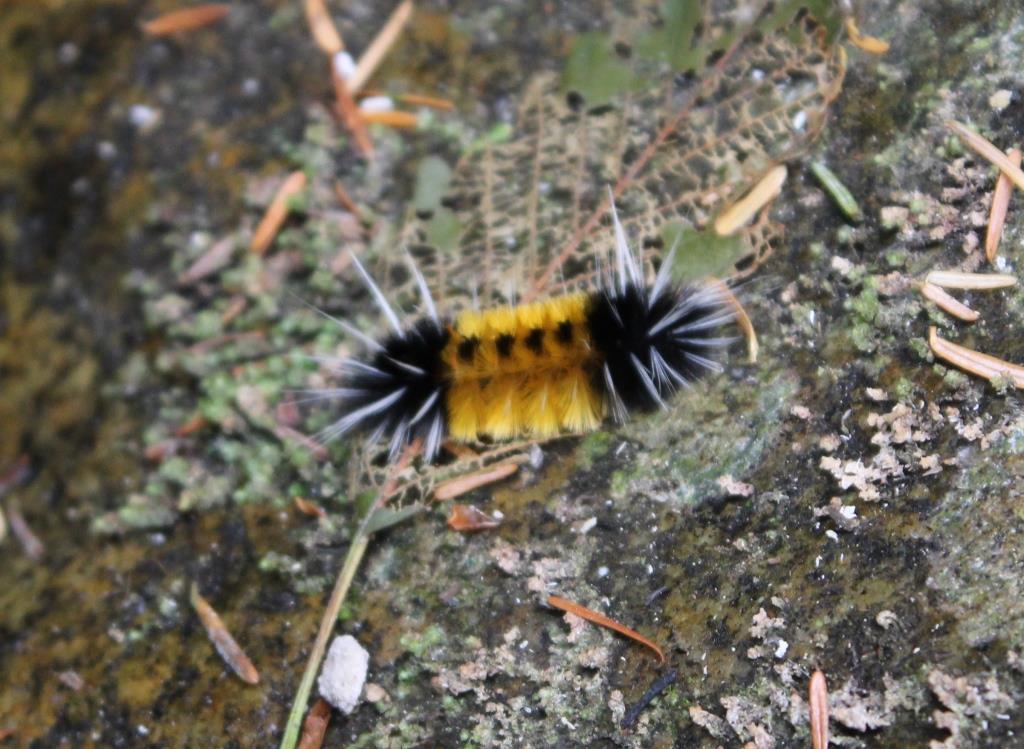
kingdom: Animalia
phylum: Arthropoda
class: Insecta
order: Lepidoptera
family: Erebidae
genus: Lophocampa
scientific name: Lophocampa maculata
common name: Spotted tussock moth
